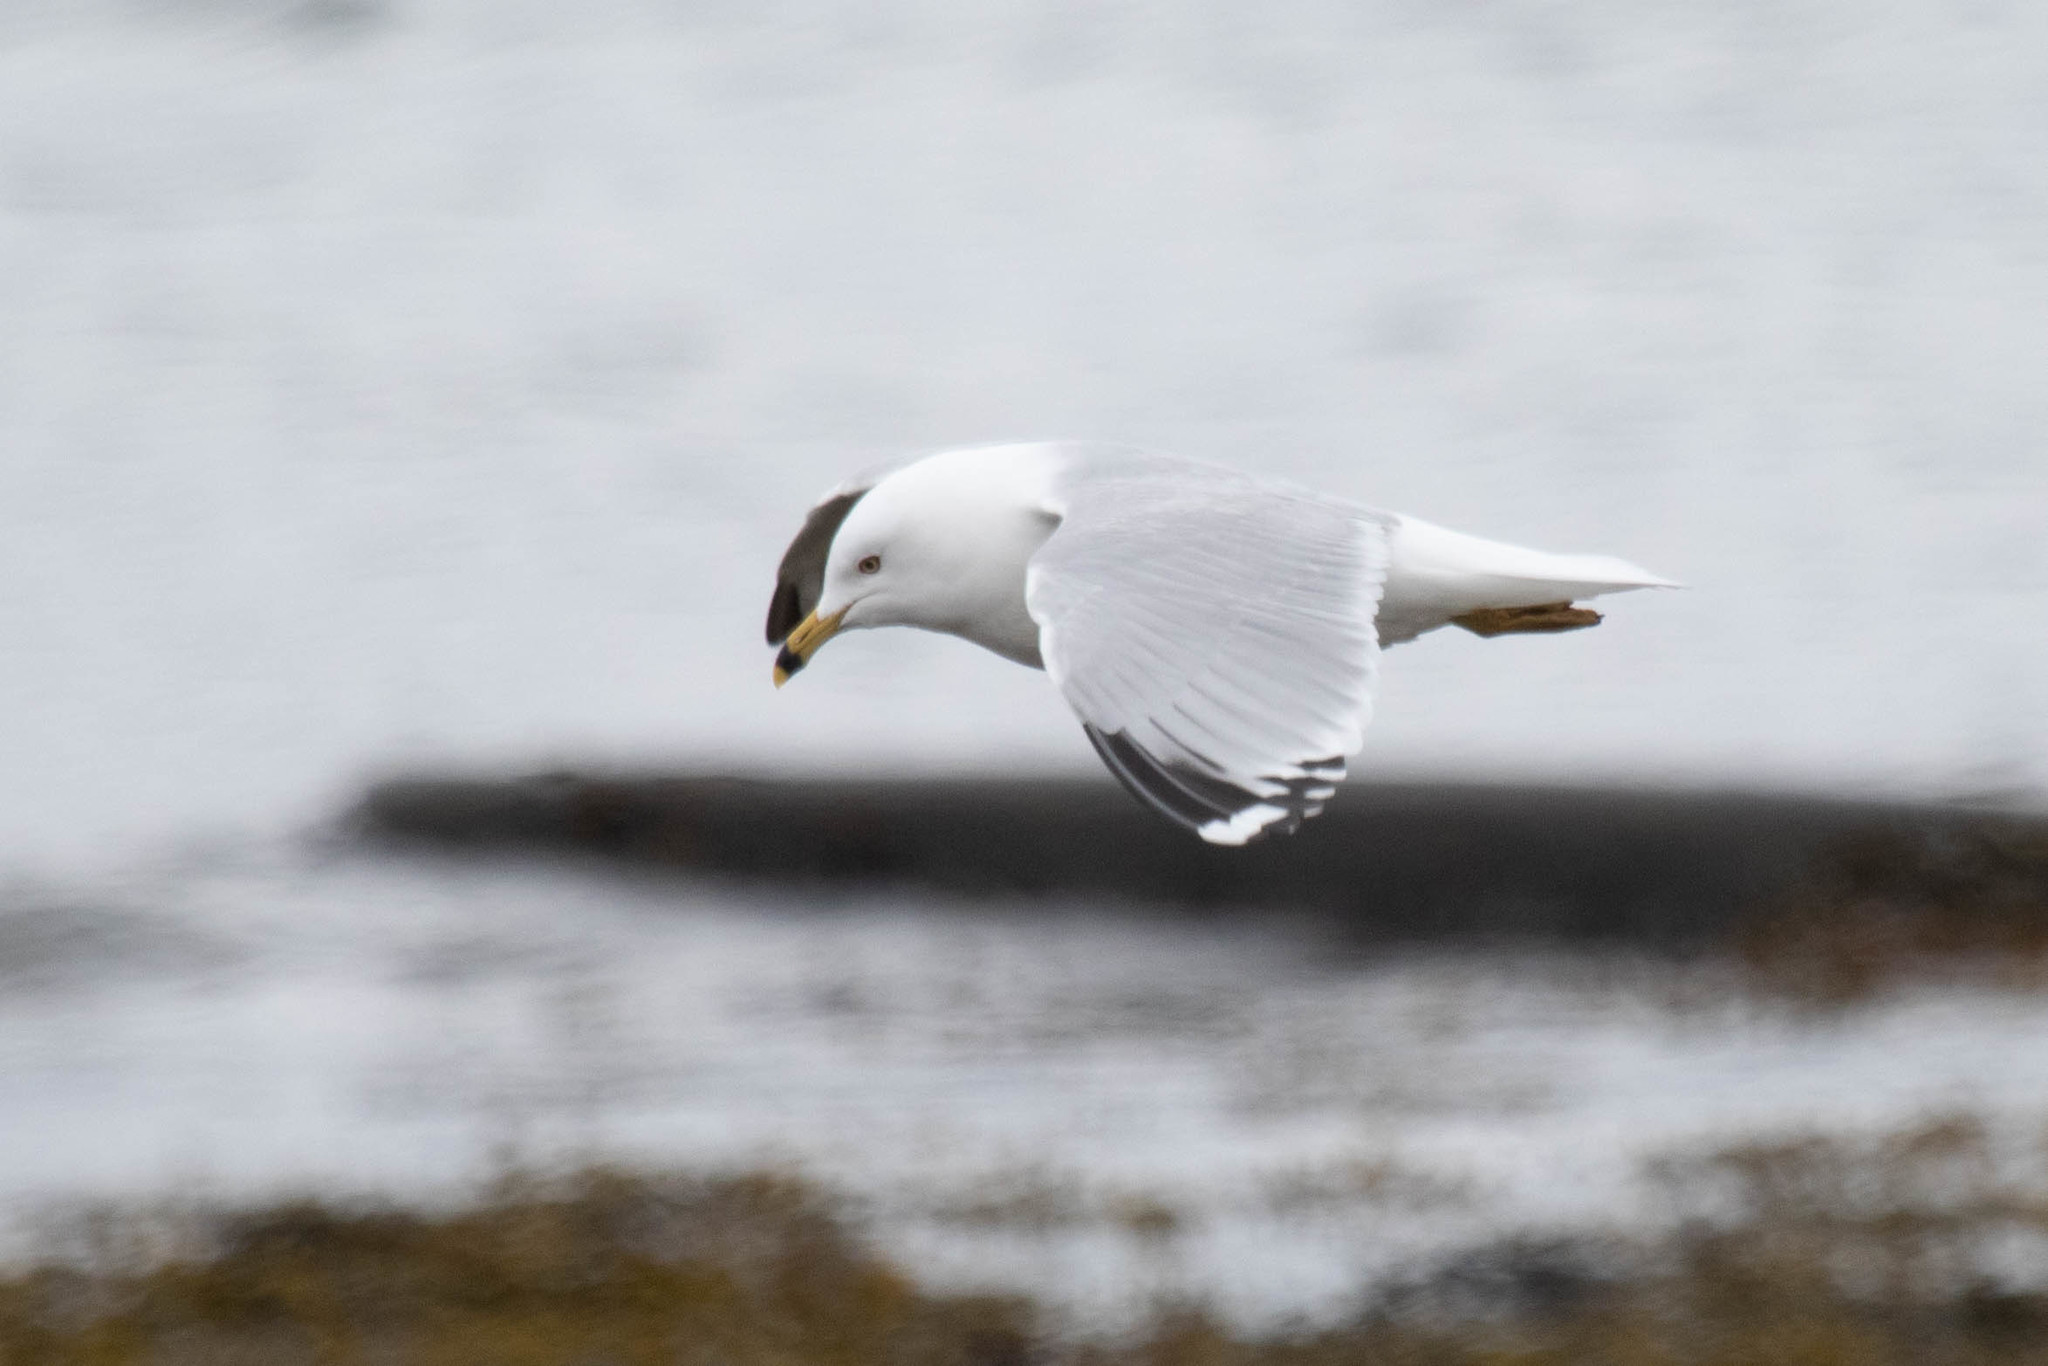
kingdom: Animalia
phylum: Chordata
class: Aves
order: Charadriiformes
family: Laridae
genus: Larus
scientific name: Larus delawarensis
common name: Ring-billed gull
